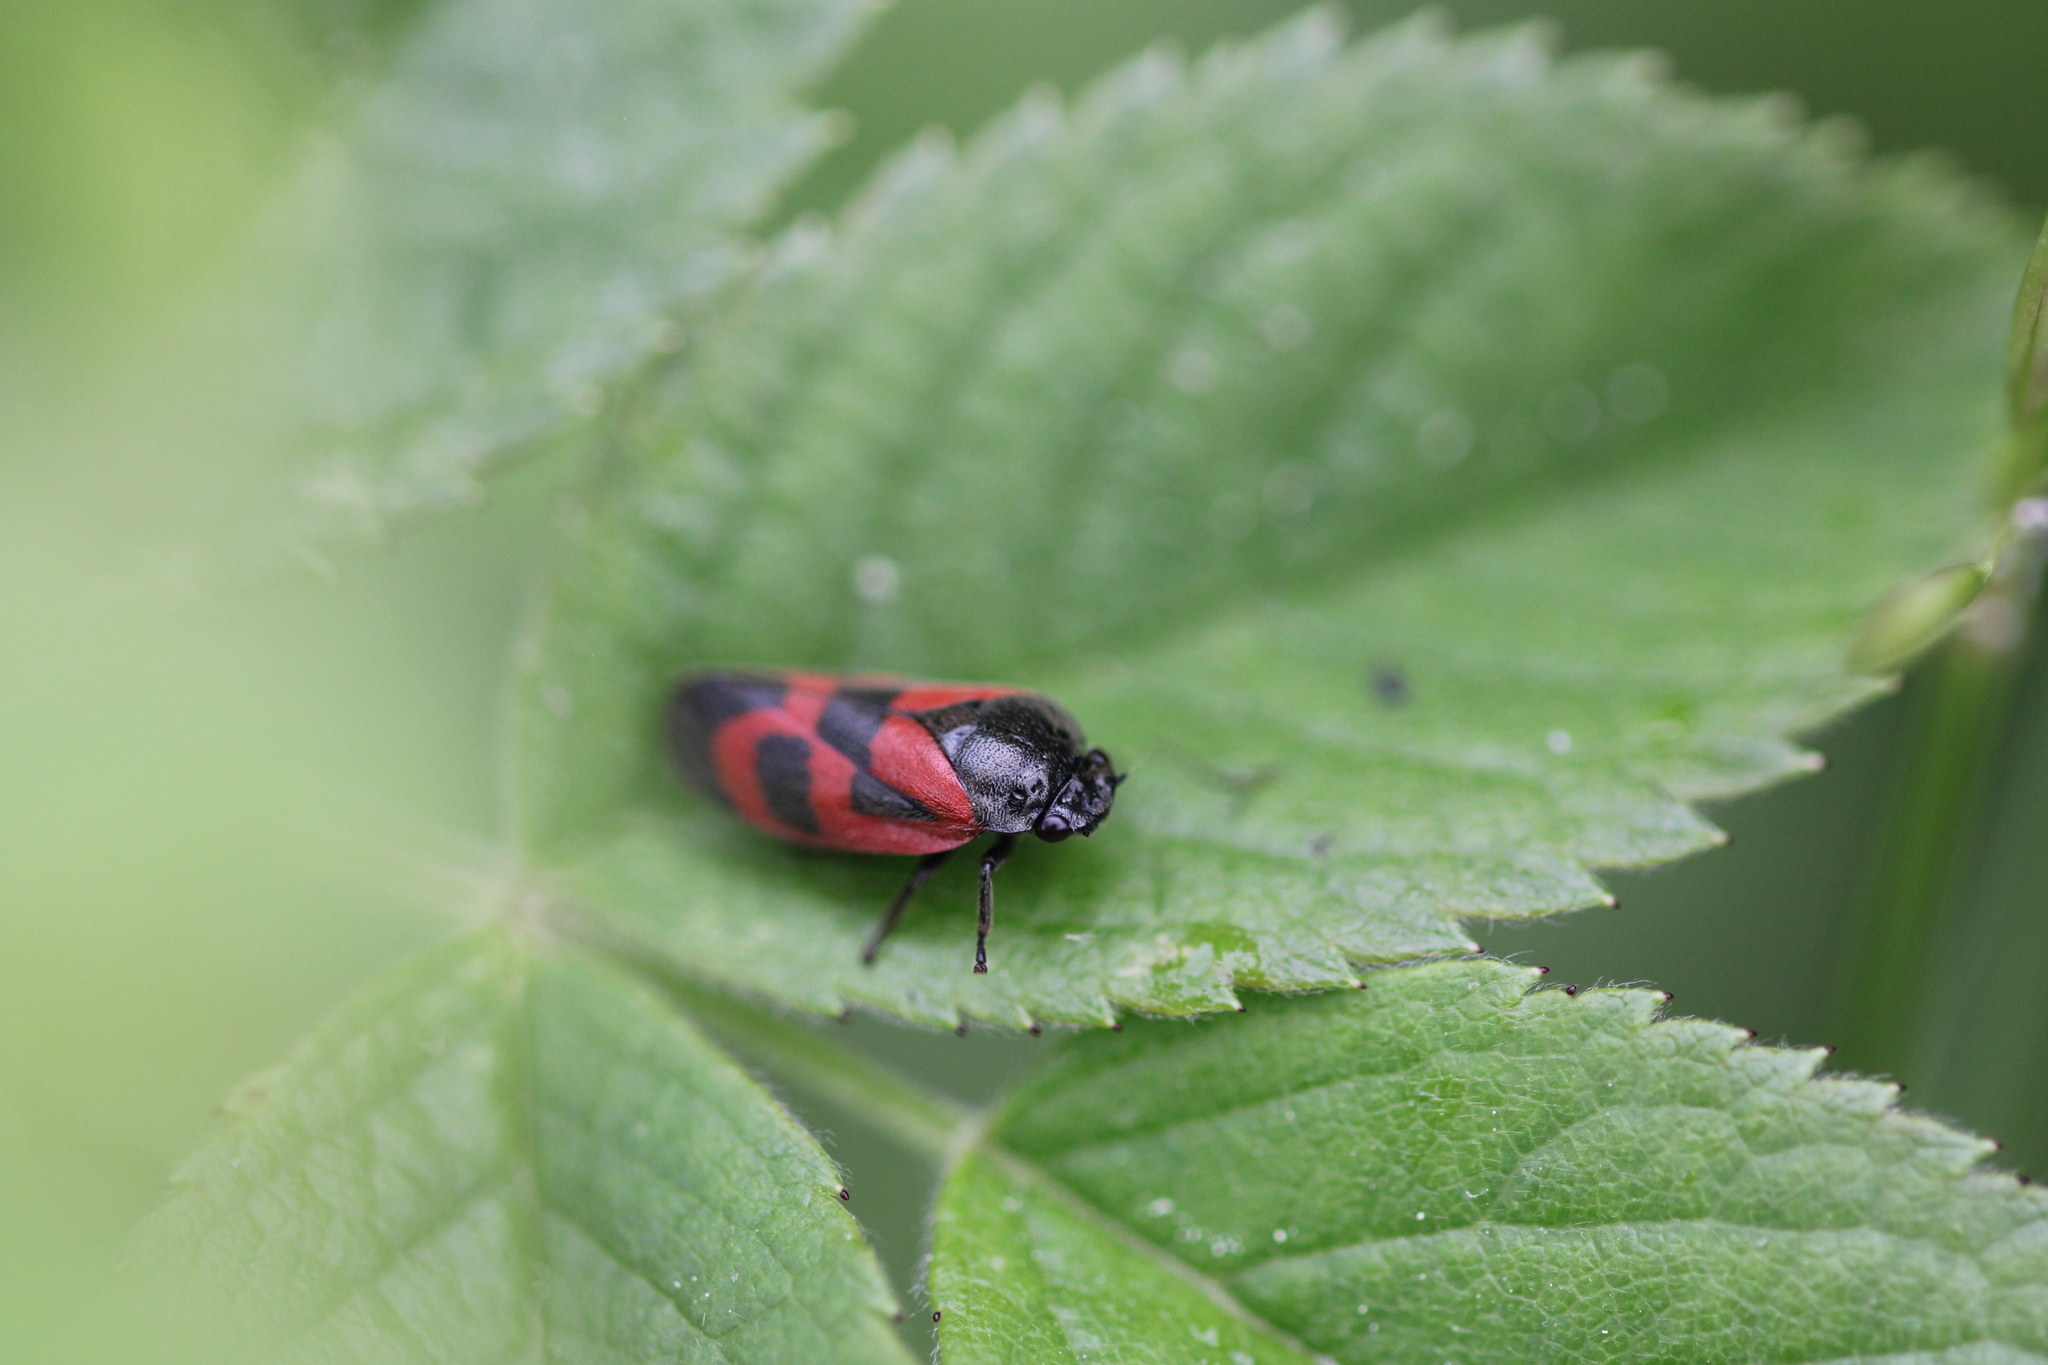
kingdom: Animalia
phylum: Arthropoda
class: Insecta
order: Hemiptera
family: Cercopidae
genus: Haematoloma
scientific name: Haematoloma dorsata
